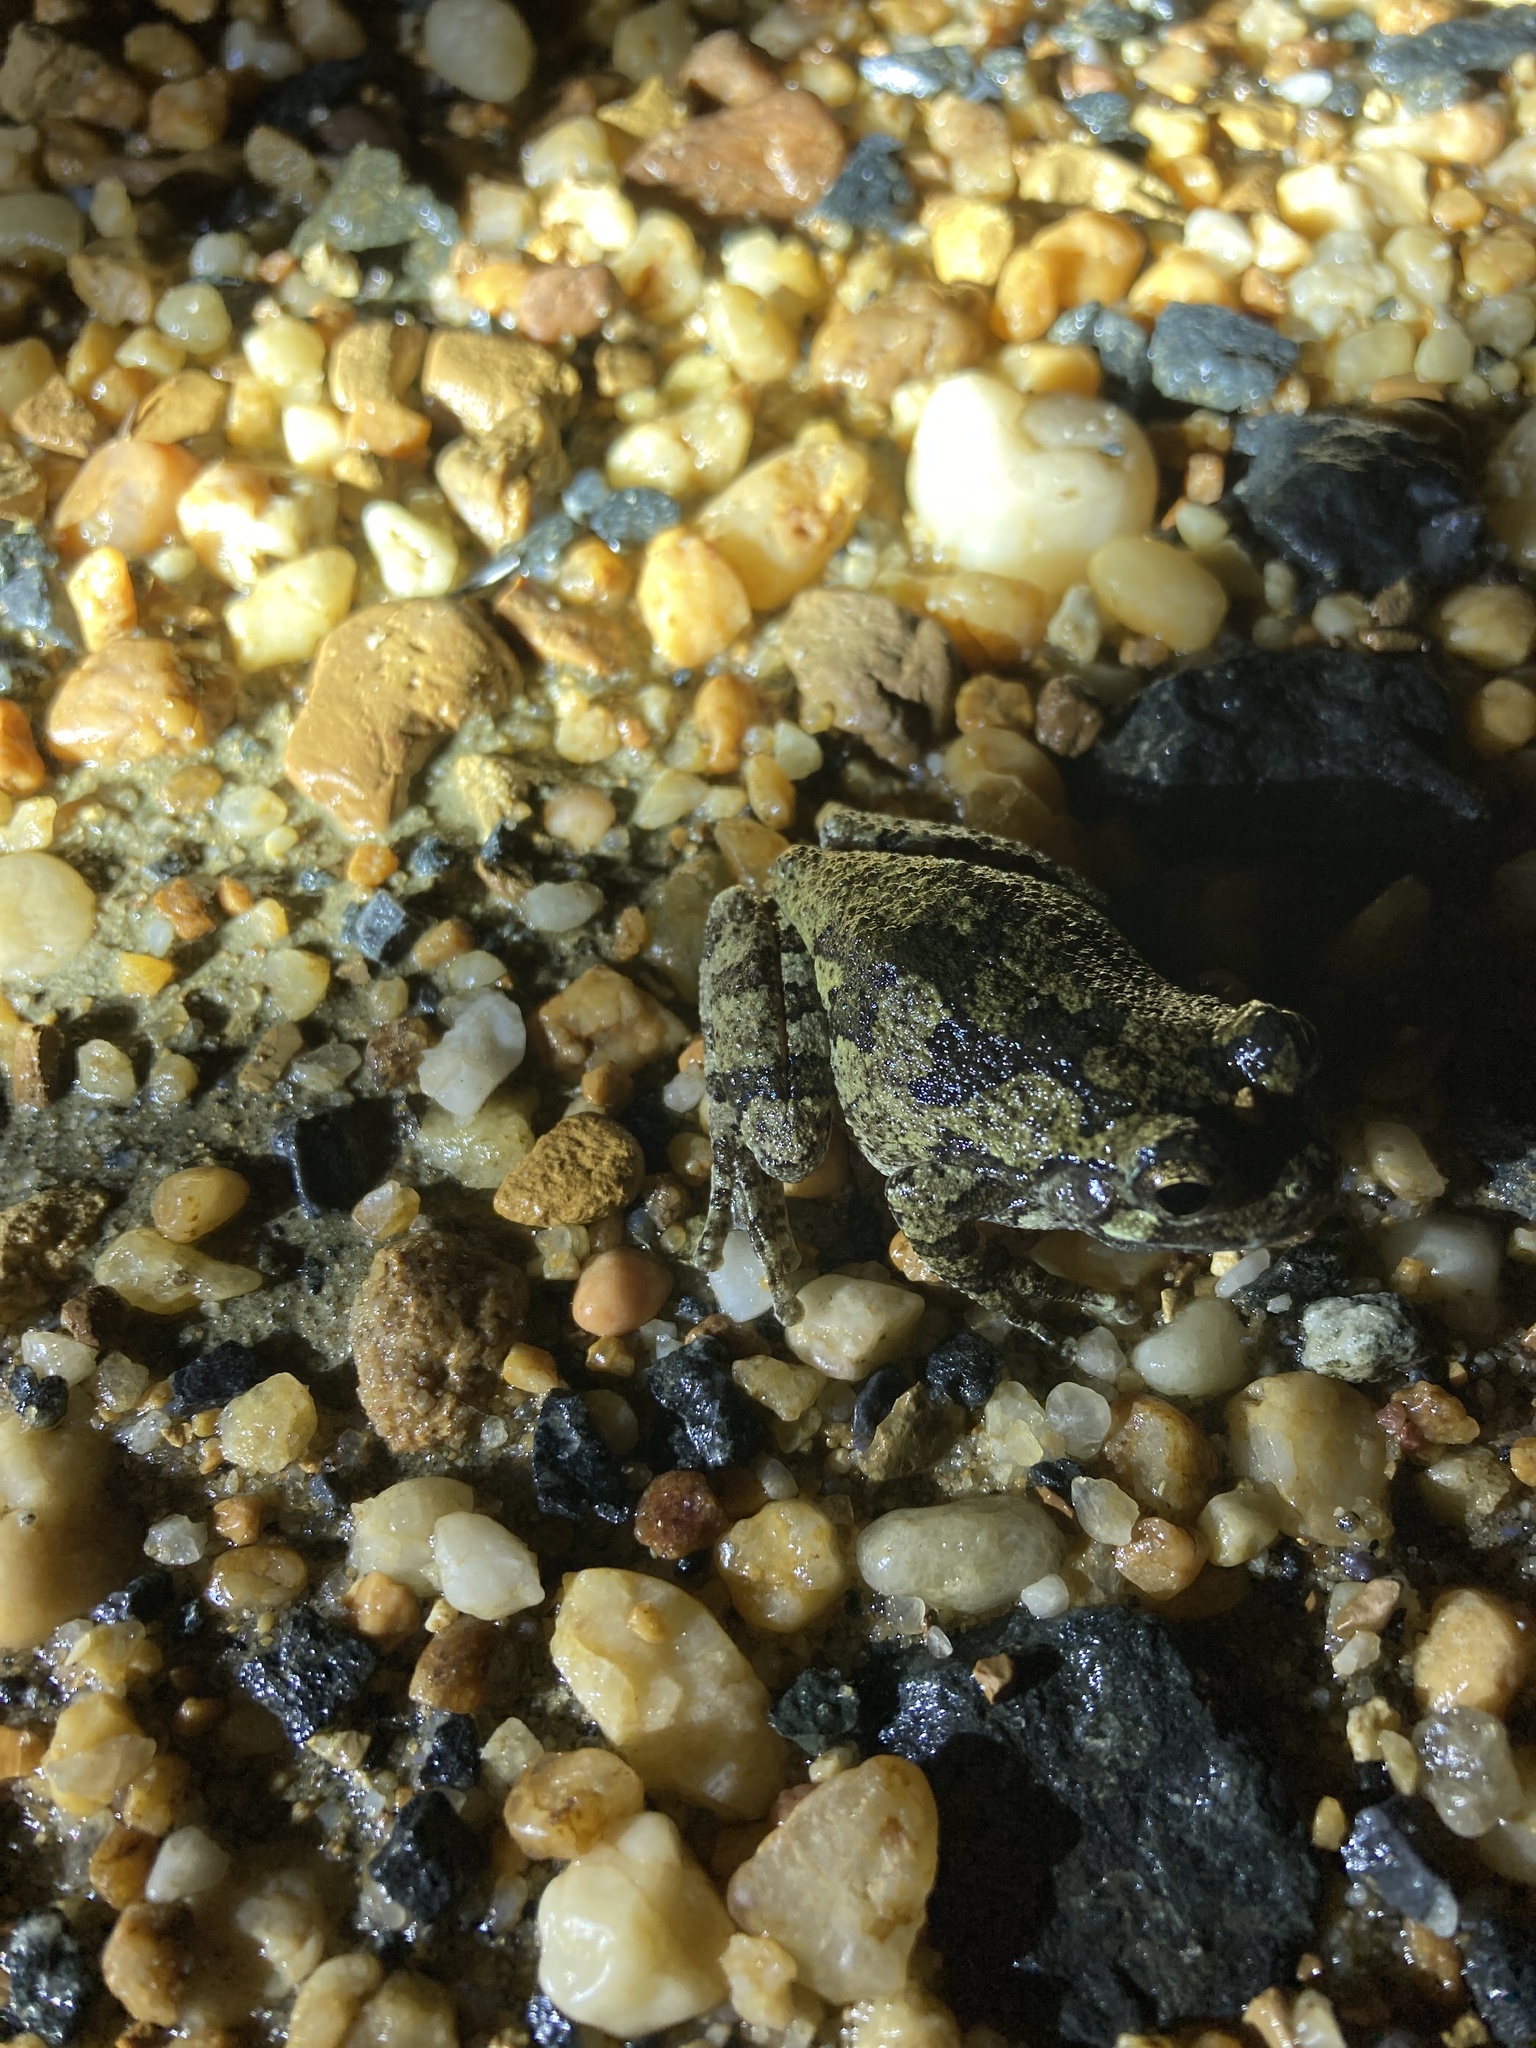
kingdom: Animalia
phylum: Chordata
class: Amphibia
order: Anura
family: Hylidae
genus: Dryophytes
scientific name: Dryophytes chrysoscelis
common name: Cope's gray treefrog
